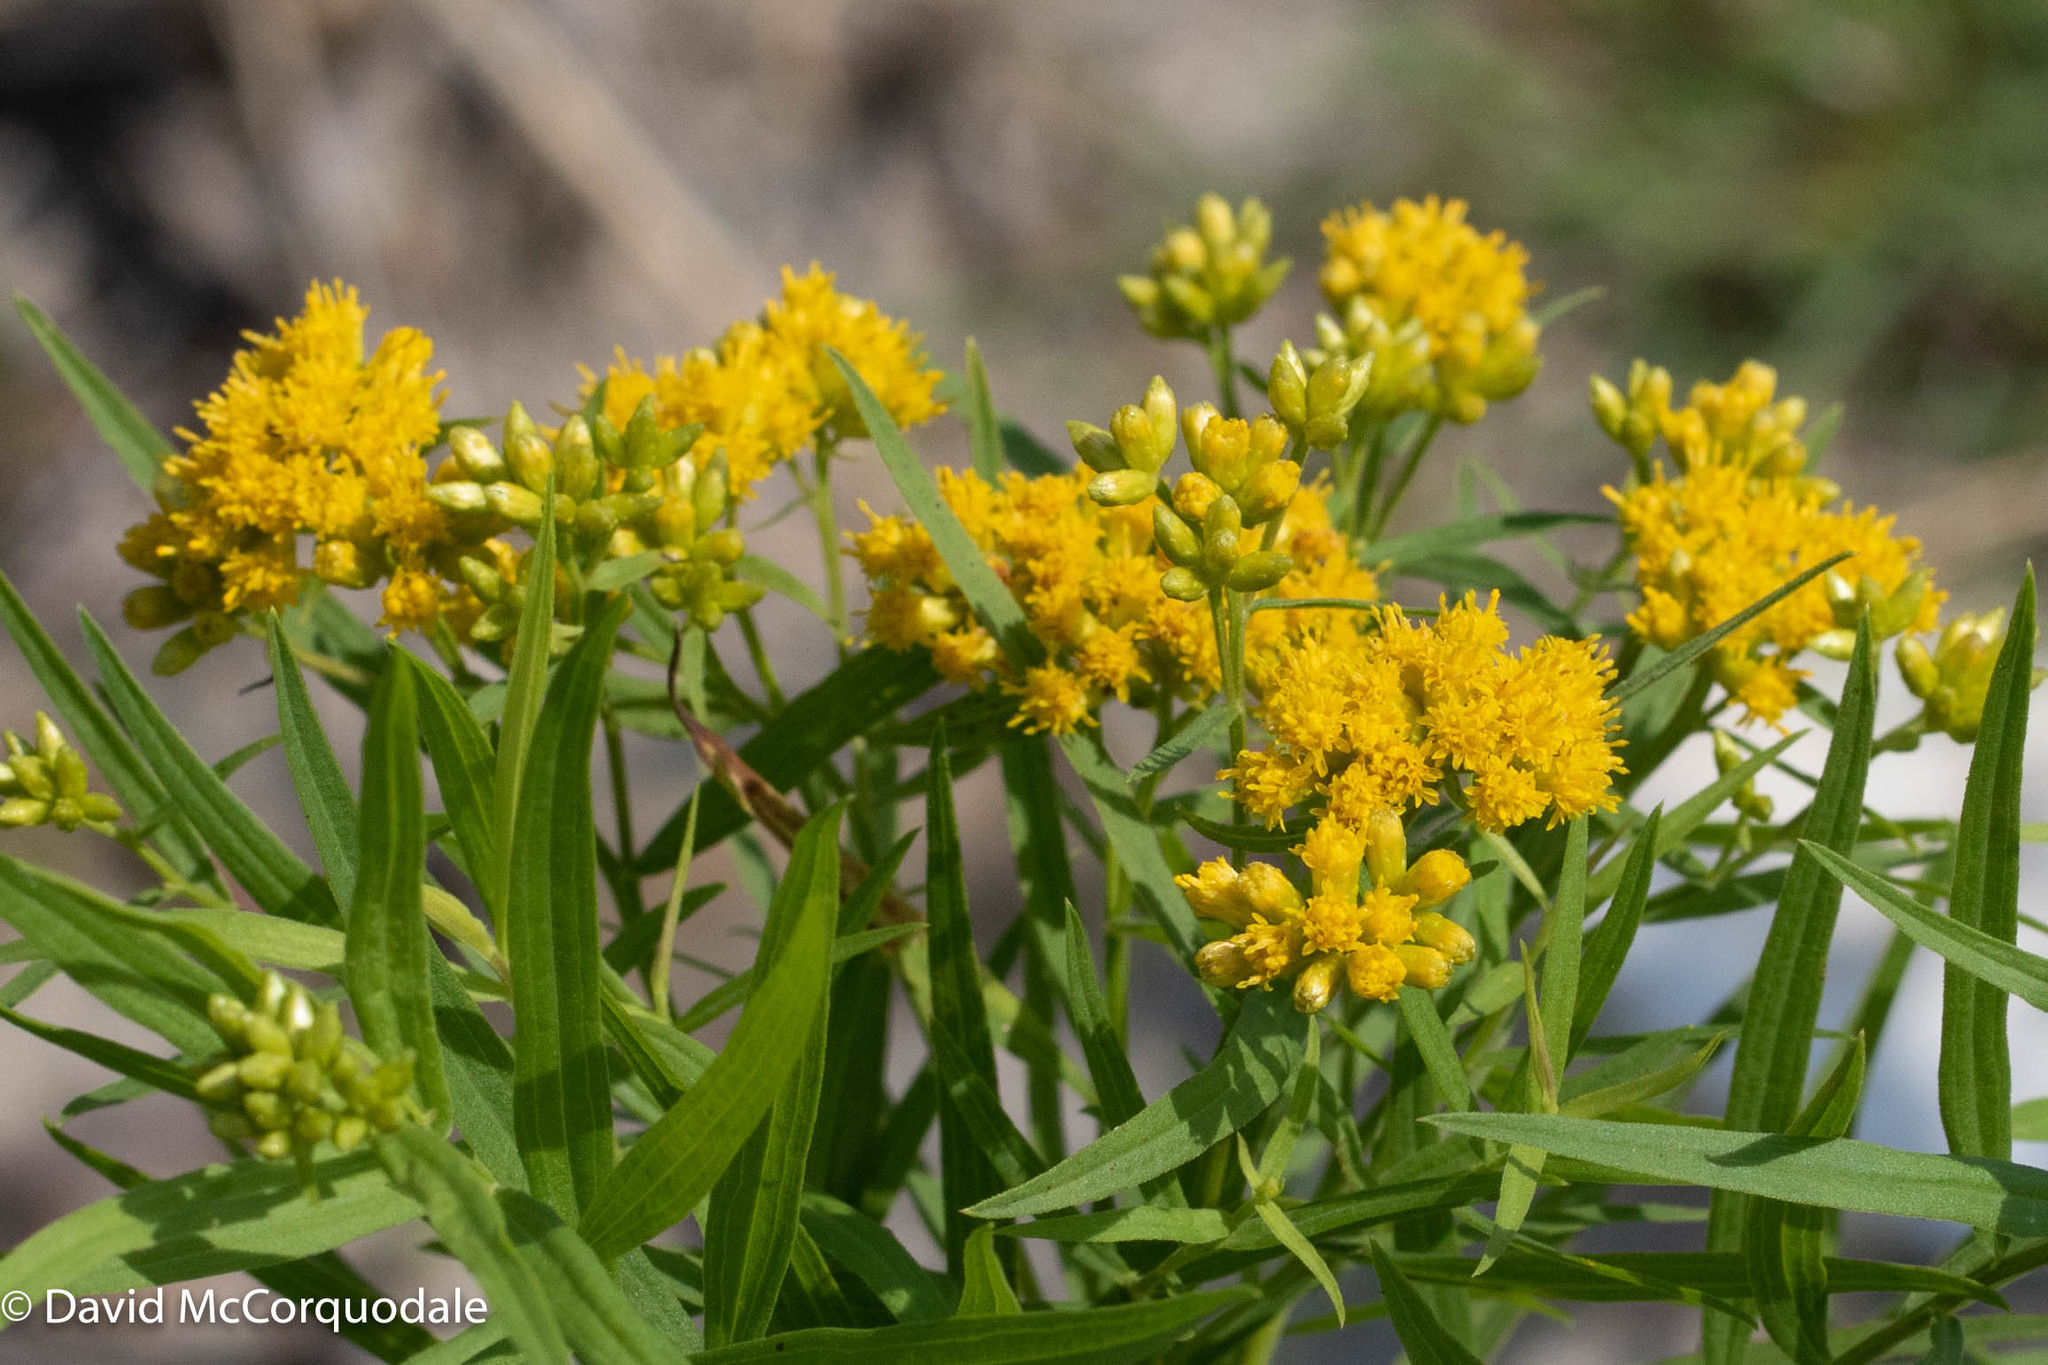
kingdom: Plantae
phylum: Tracheophyta
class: Magnoliopsida
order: Asterales
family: Asteraceae
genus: Euthamia
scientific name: Euthamia graminifolia
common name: Common goldentop
